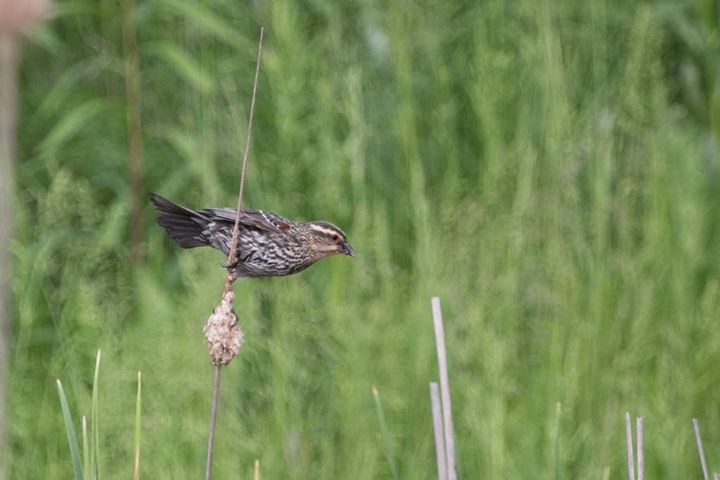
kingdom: Animalia
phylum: Chordata
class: Aves
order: Passeriformes
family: Icteridae
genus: Agelaius
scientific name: Agelaius phoeniceus
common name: Red-winged blackbird
